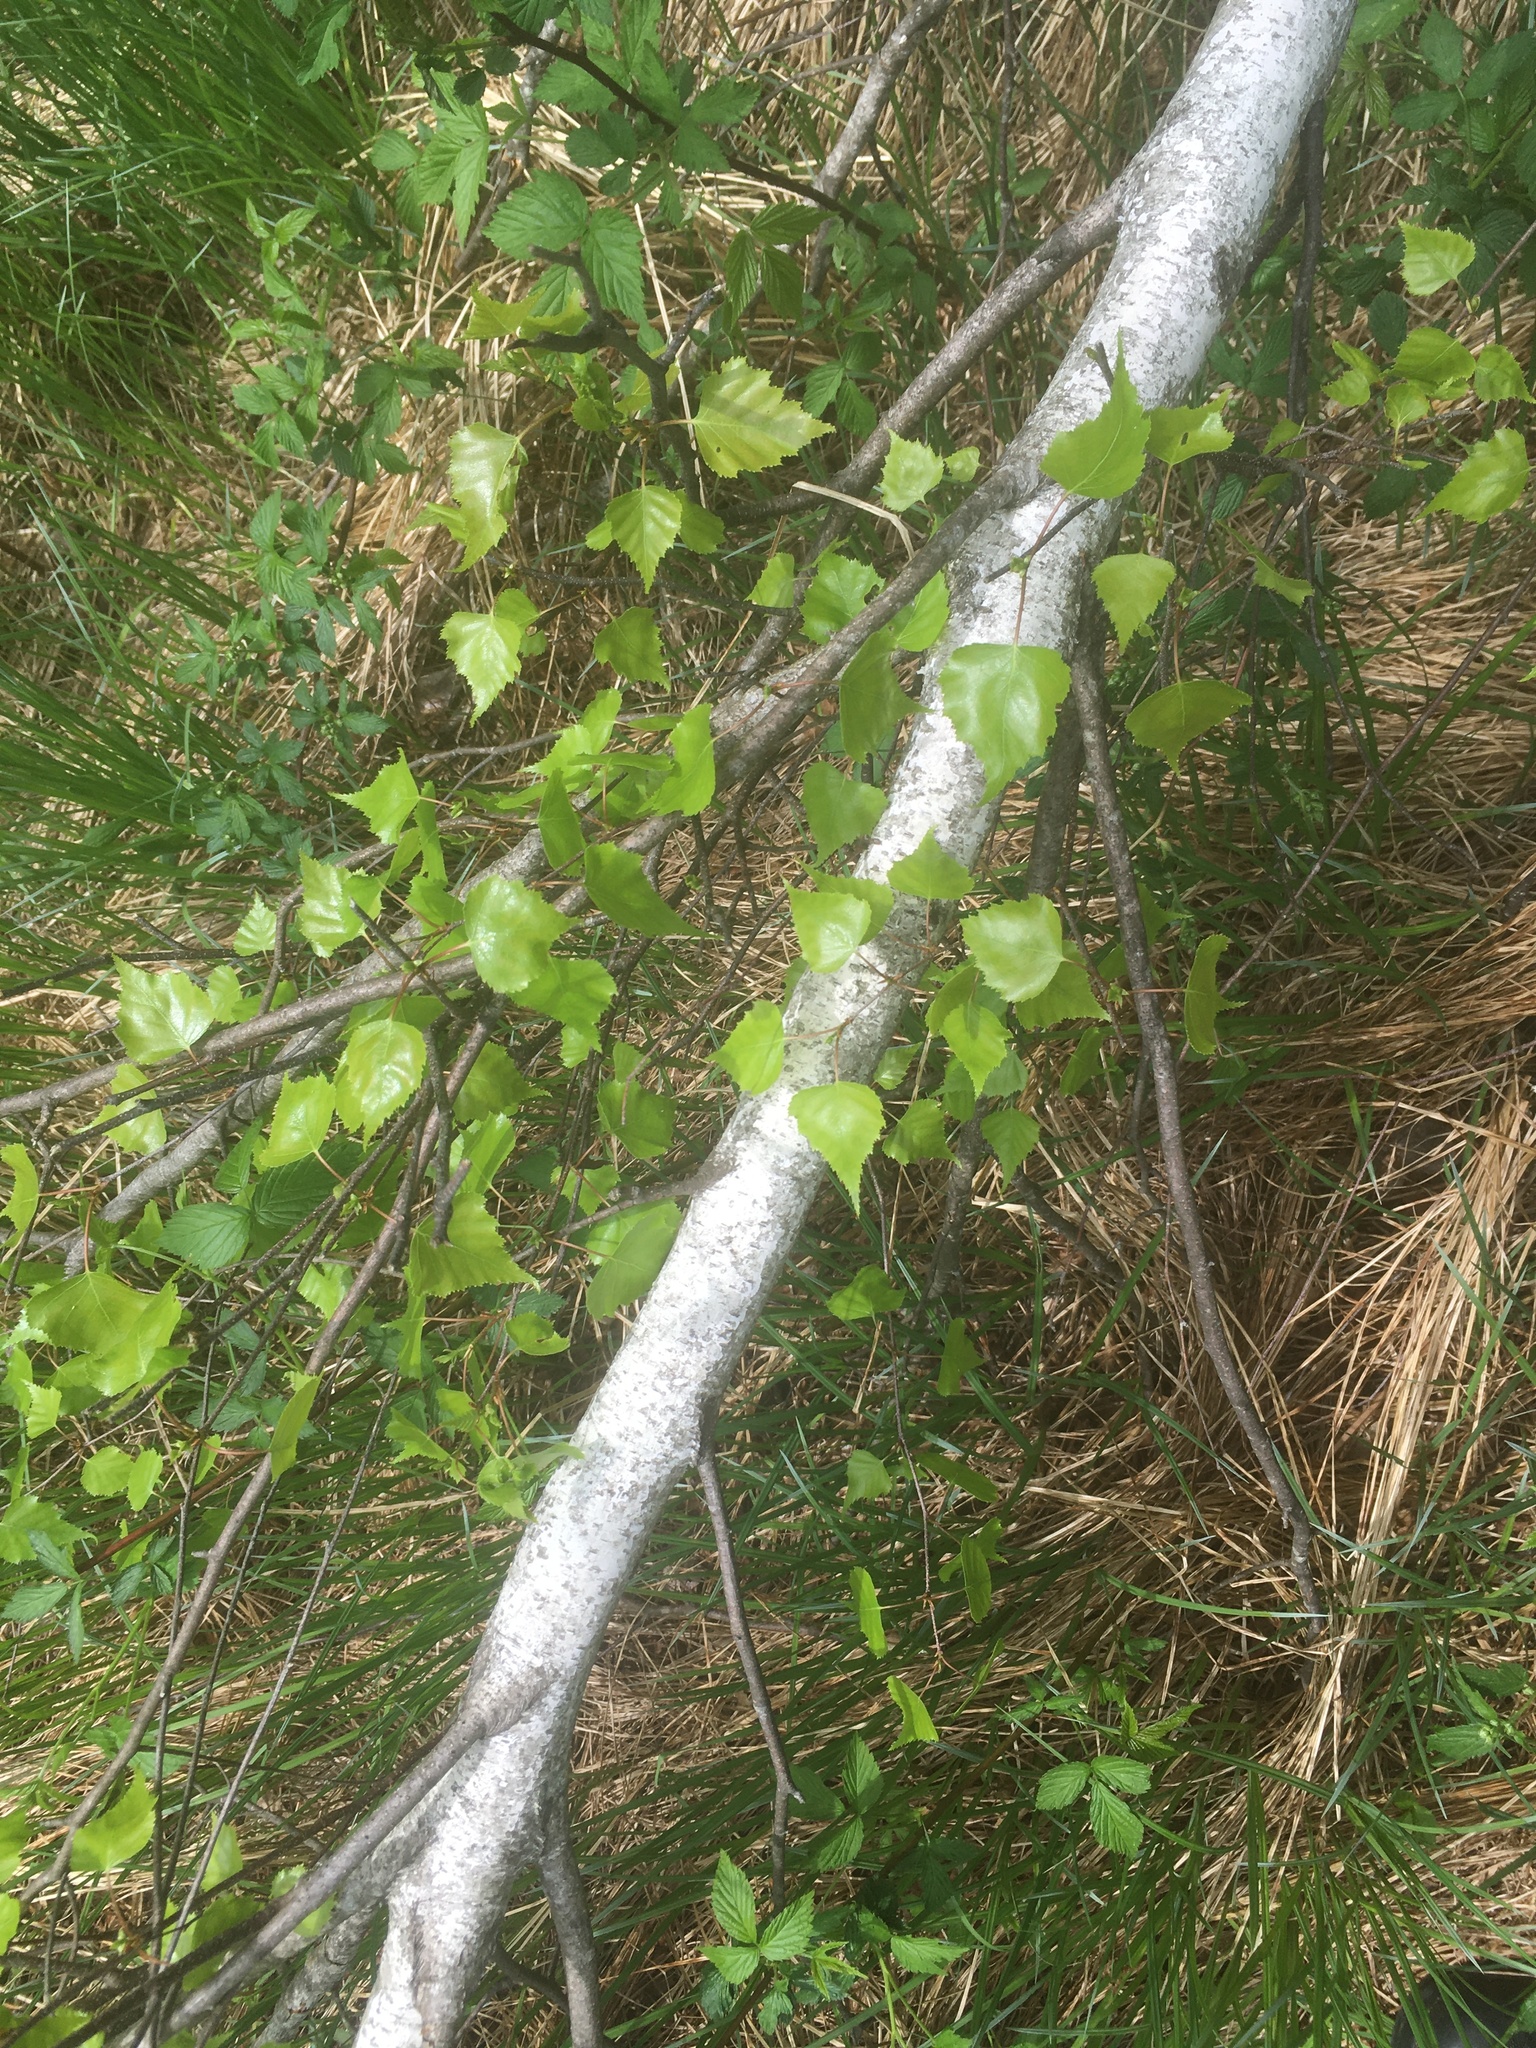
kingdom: Plantae
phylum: Tracheophyta
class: Magnoliopsida
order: Fagales
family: Betulaceae
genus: Betula
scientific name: Betula populifolia
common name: Fire birch
